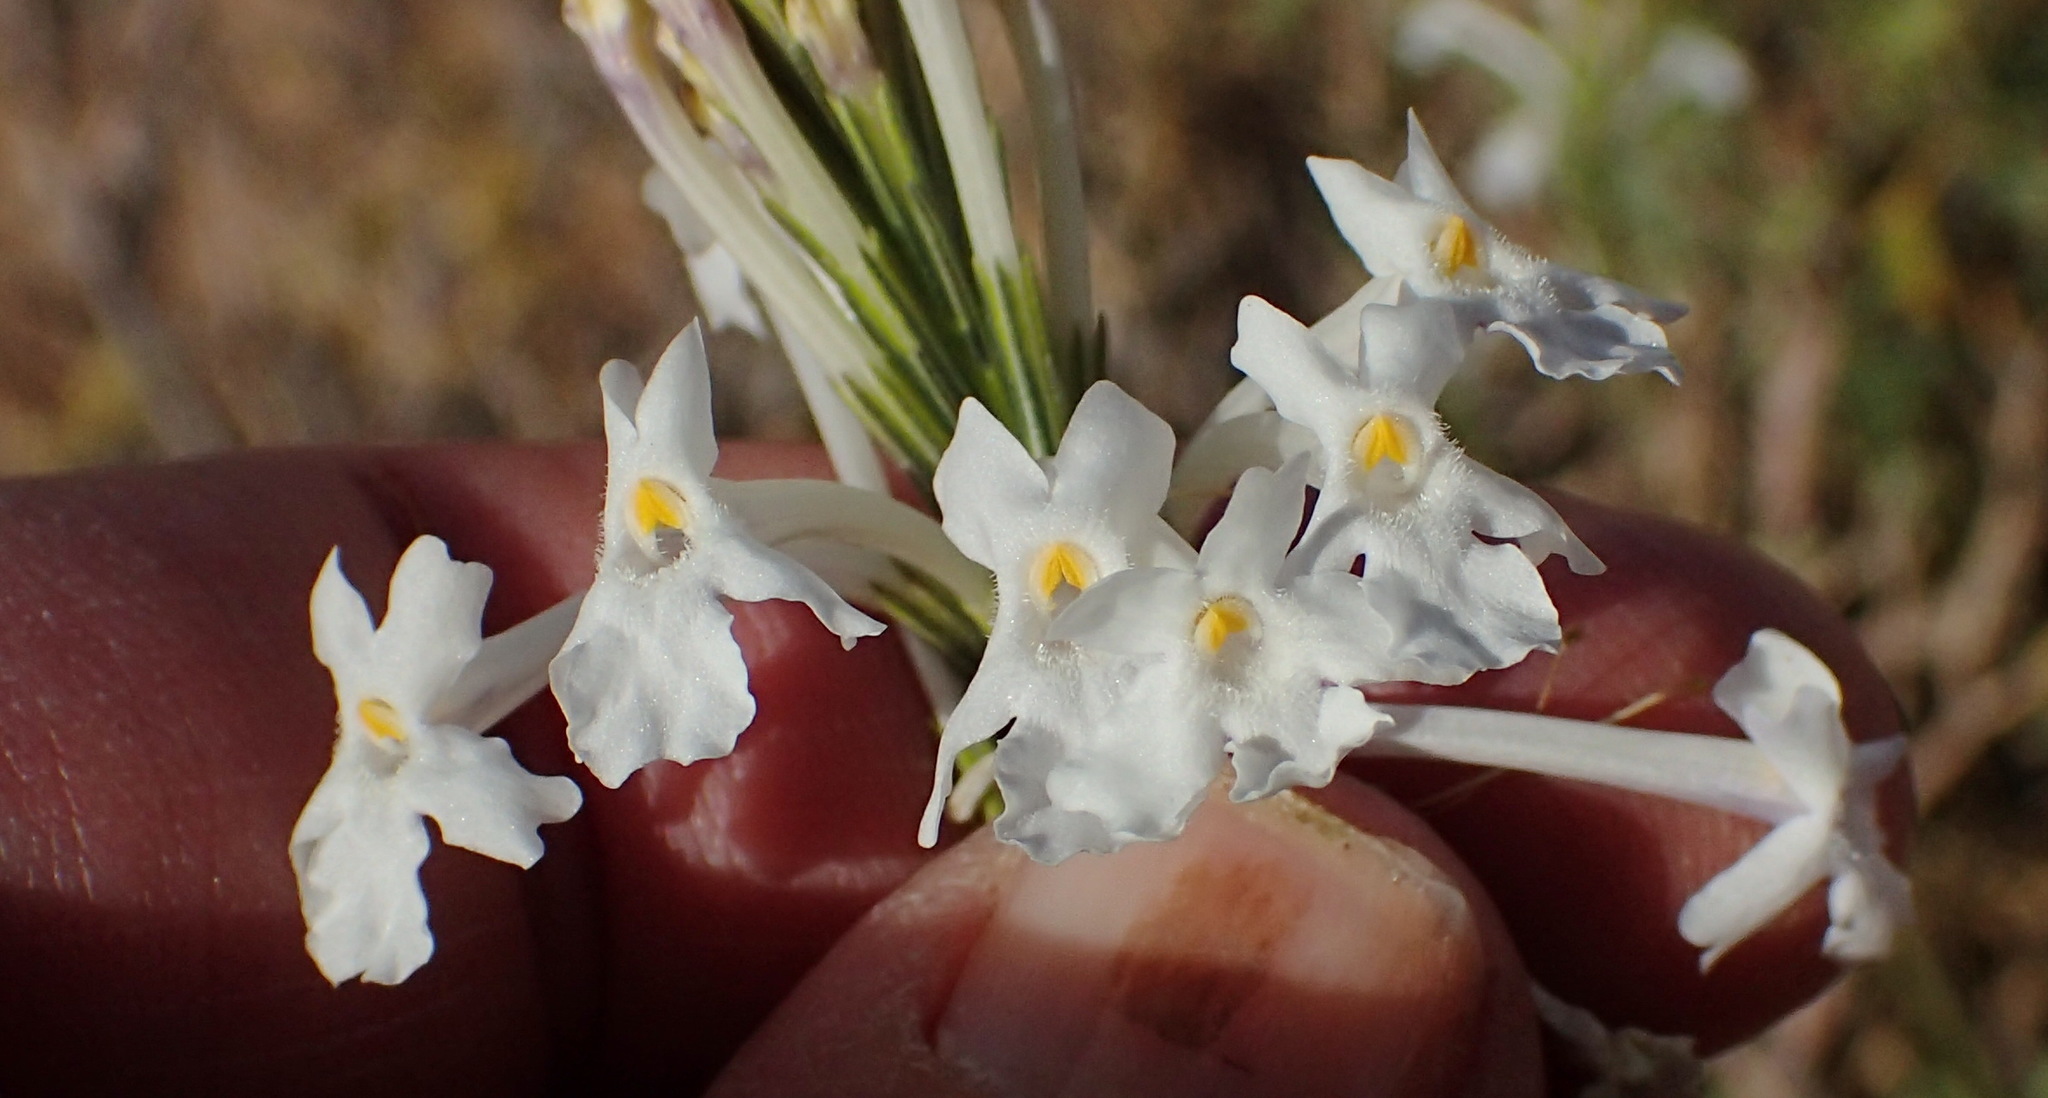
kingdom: Plantae
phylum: Tracheophyta
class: Magnoliopsida
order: Lamiales
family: Verbenaceae
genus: Chascanum
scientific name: Chascanum garipense
